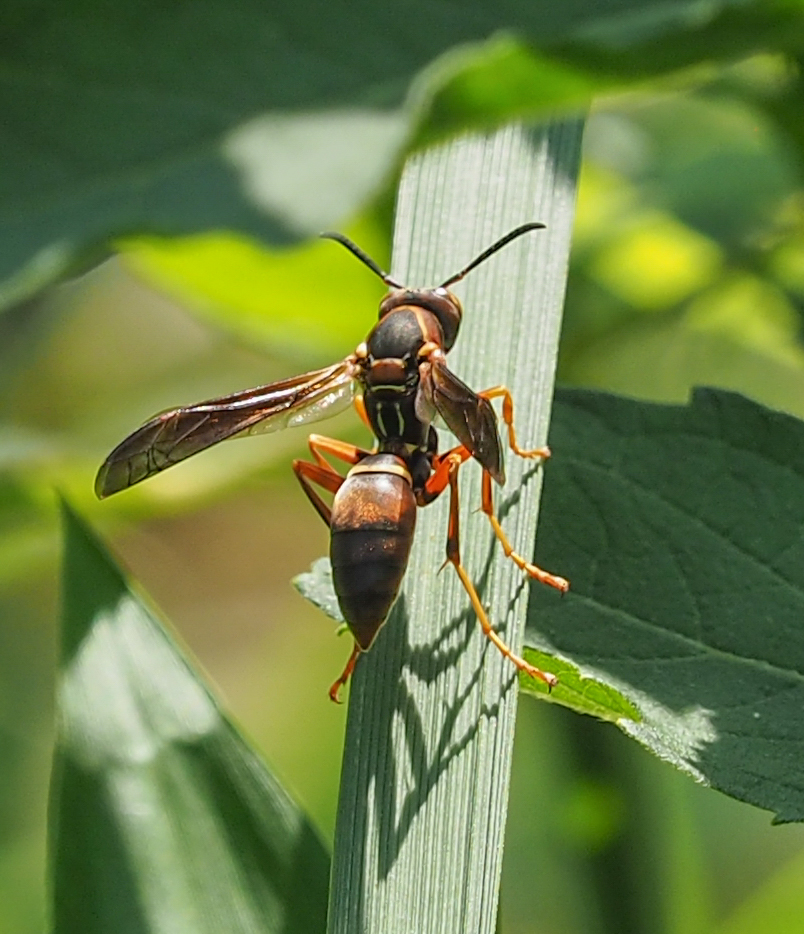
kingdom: Animalia
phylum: Arthropoda
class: Insecta
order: Hymenoptera
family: Eumenidae
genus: Polistes
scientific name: Polistes fuscatus
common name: Dark paper wasp
